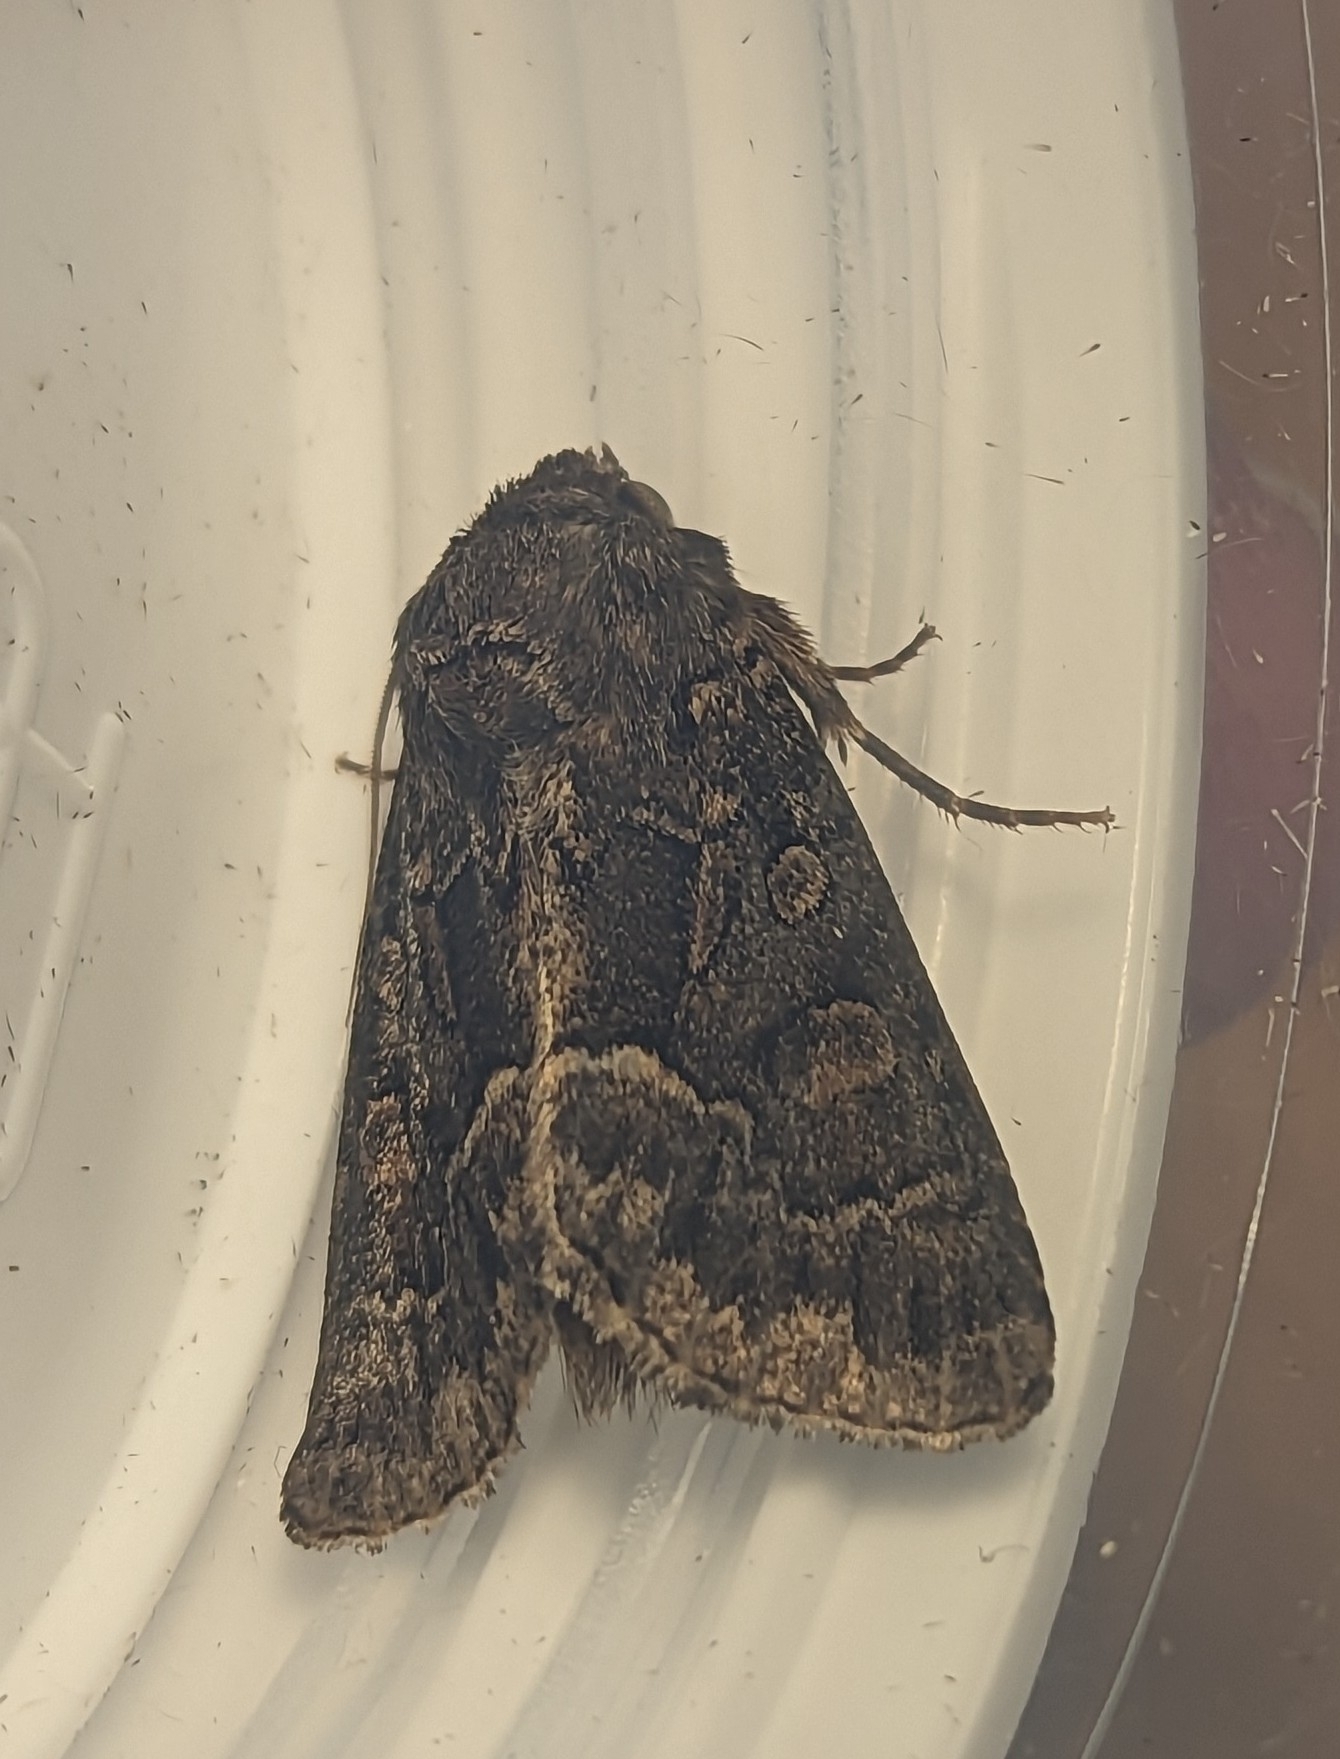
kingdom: Animalia
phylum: Arthropoda
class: Insecta
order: Lepidoptera
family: Noctuidae
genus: Thalpophila
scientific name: Thalpophila matura
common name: Straw underwing
